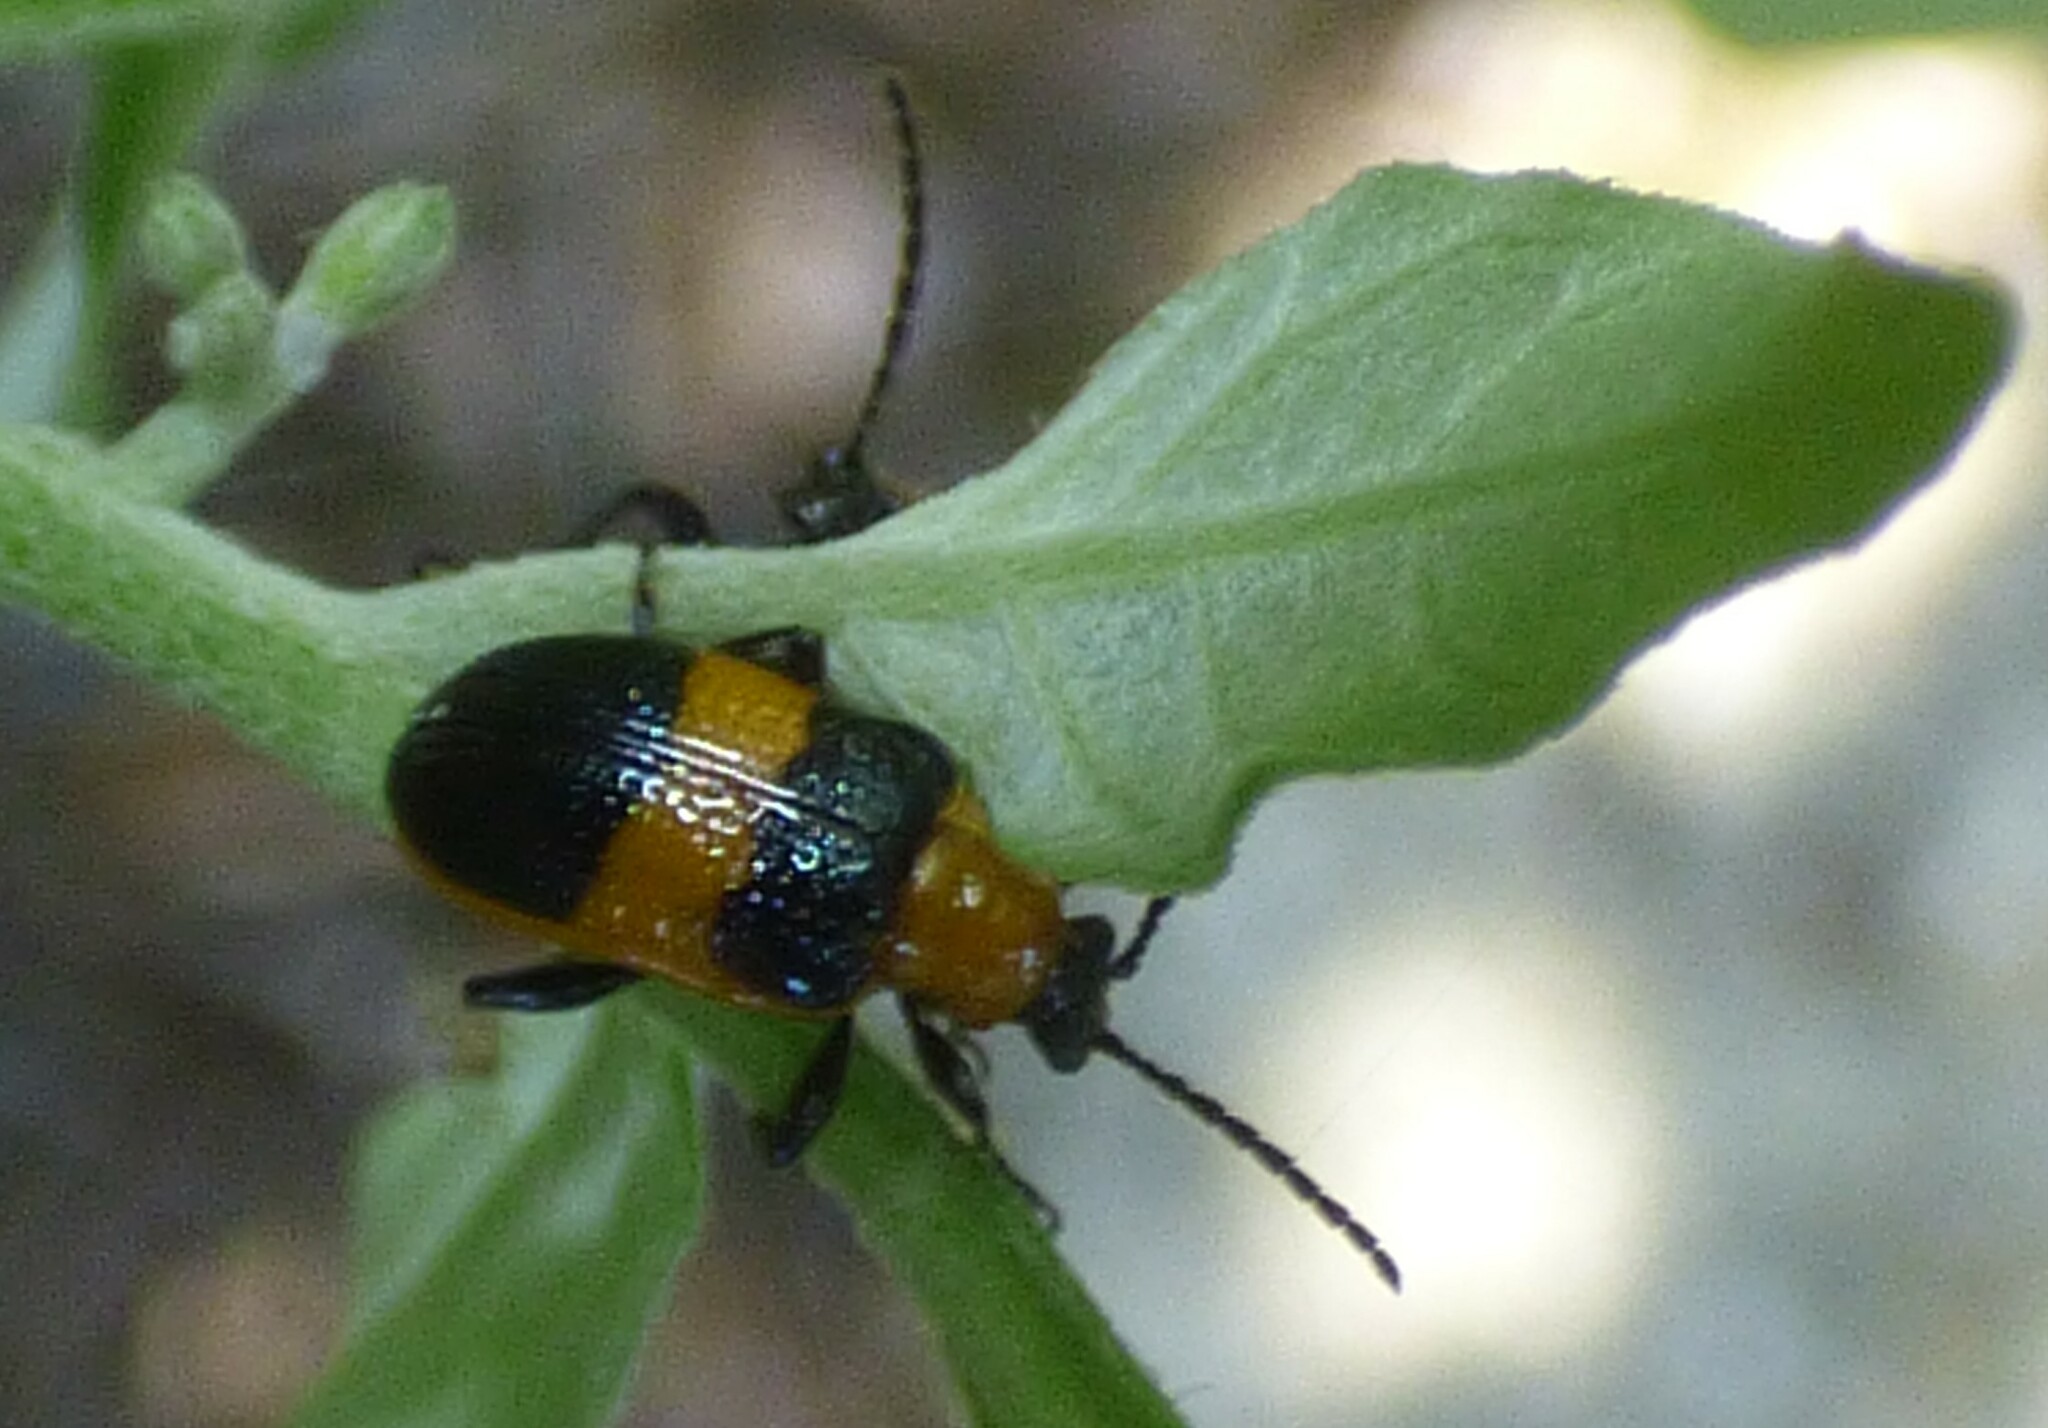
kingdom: Animalia
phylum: Arthropoda
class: Insecta
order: Coleoptera
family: Chrysomelidae
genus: Lema
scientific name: Lema solani
